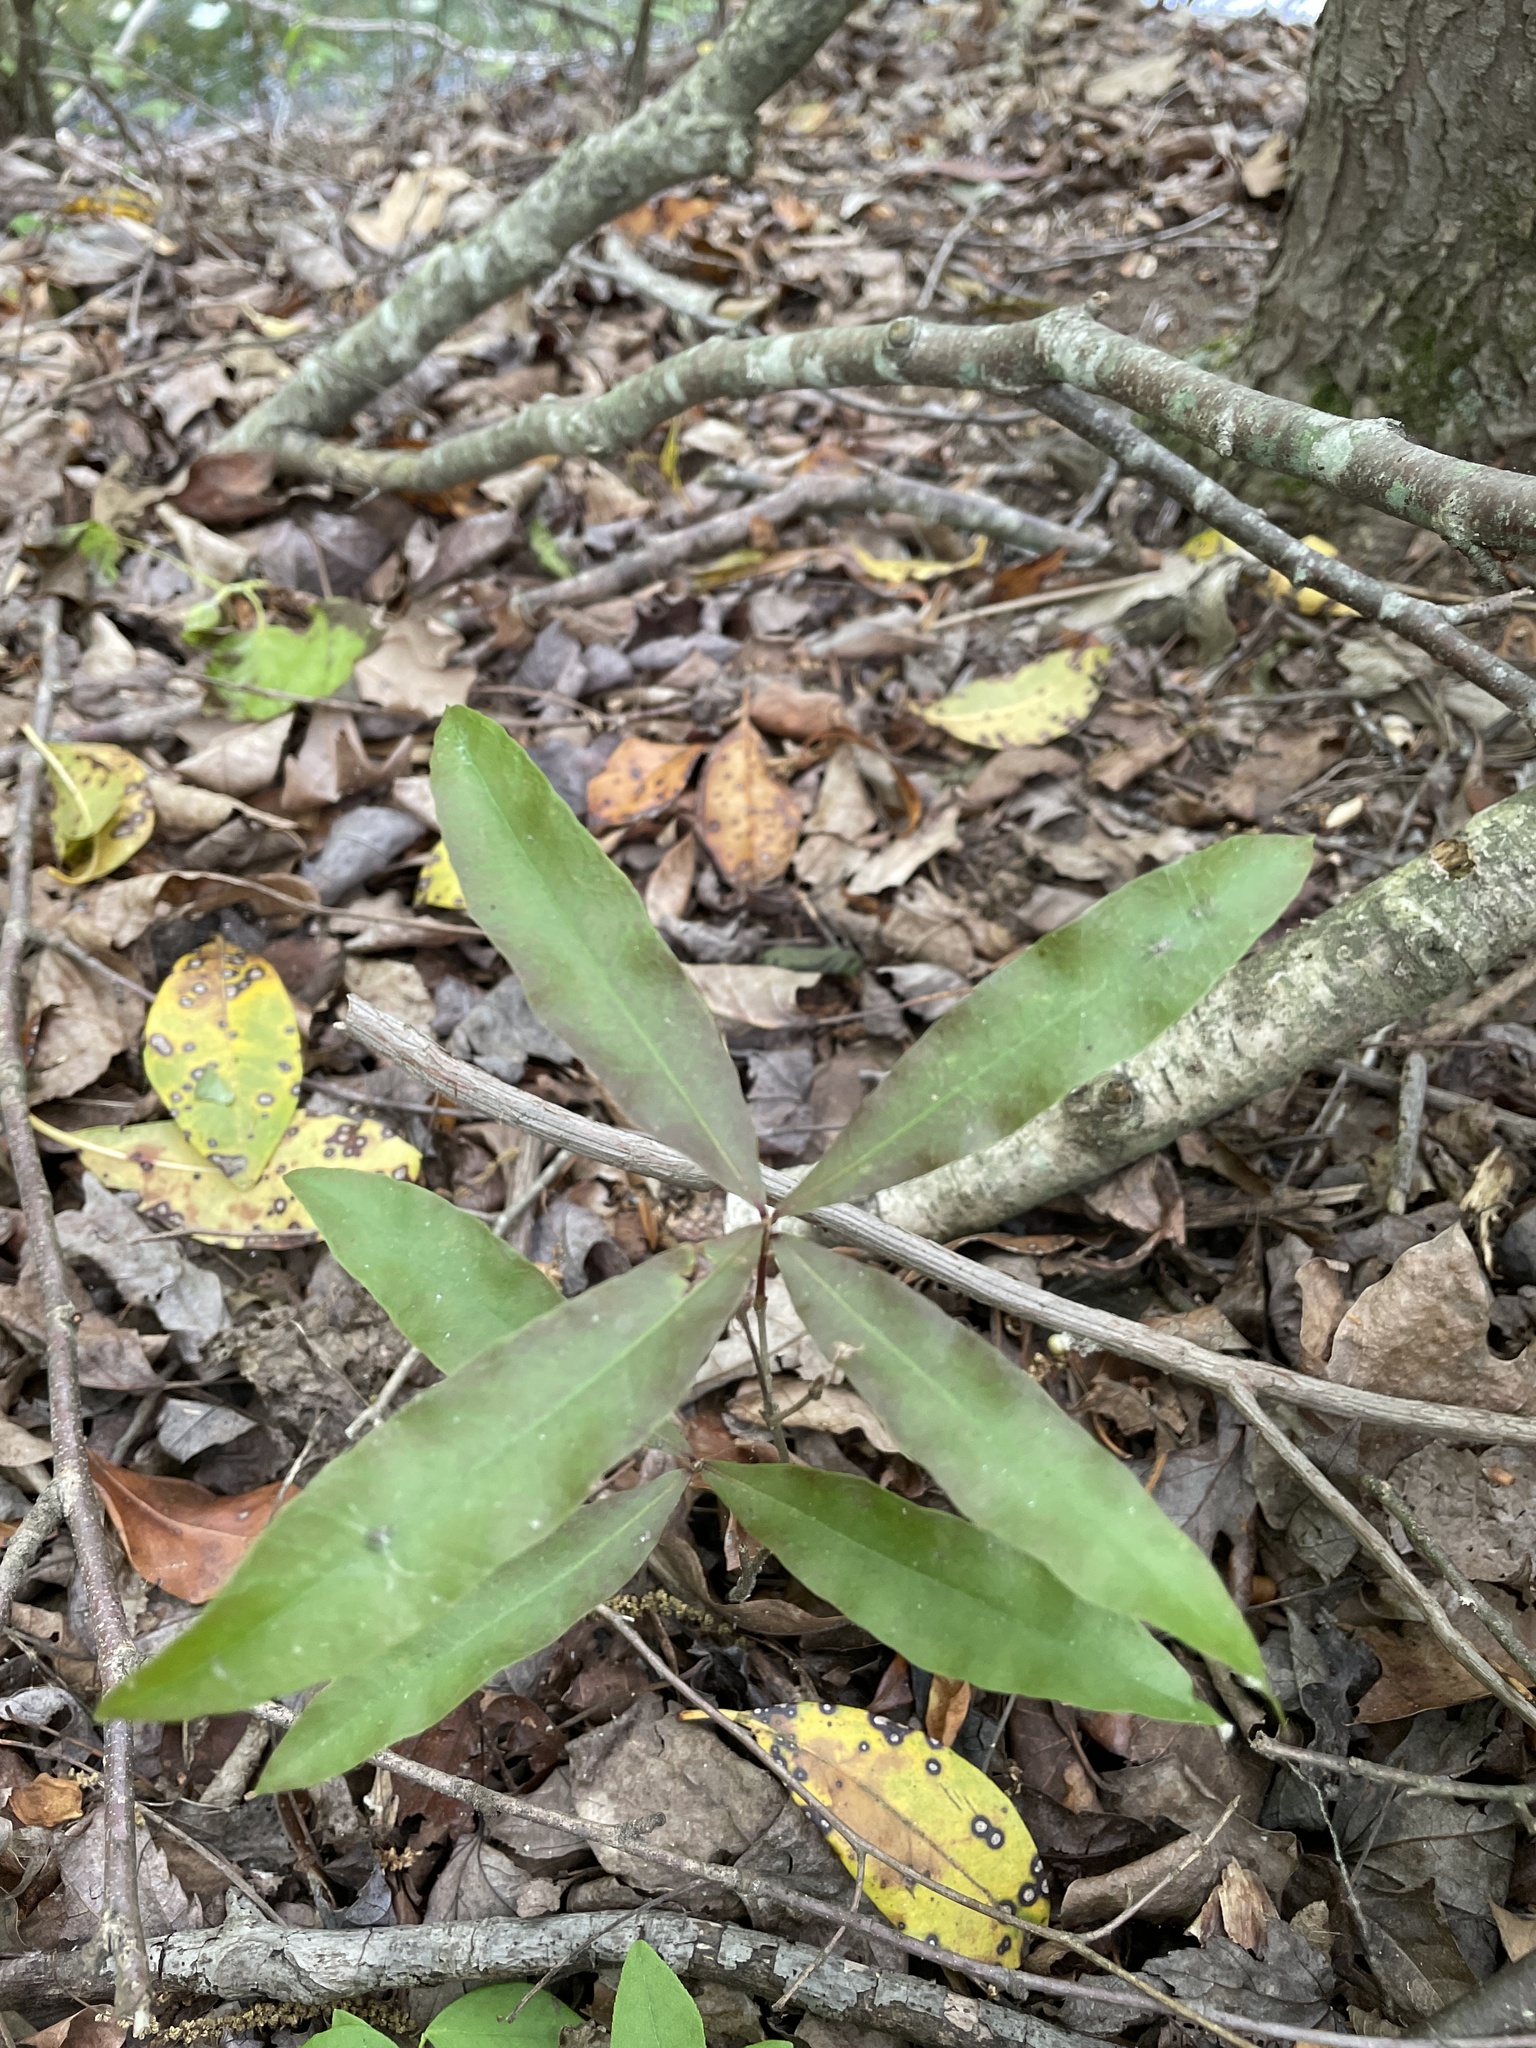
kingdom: Plantae
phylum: Tracheophyta
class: Magnoliopsida
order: Fagales
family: Fagaceae
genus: Quercus
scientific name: Quercus phellos
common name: Willow oak
